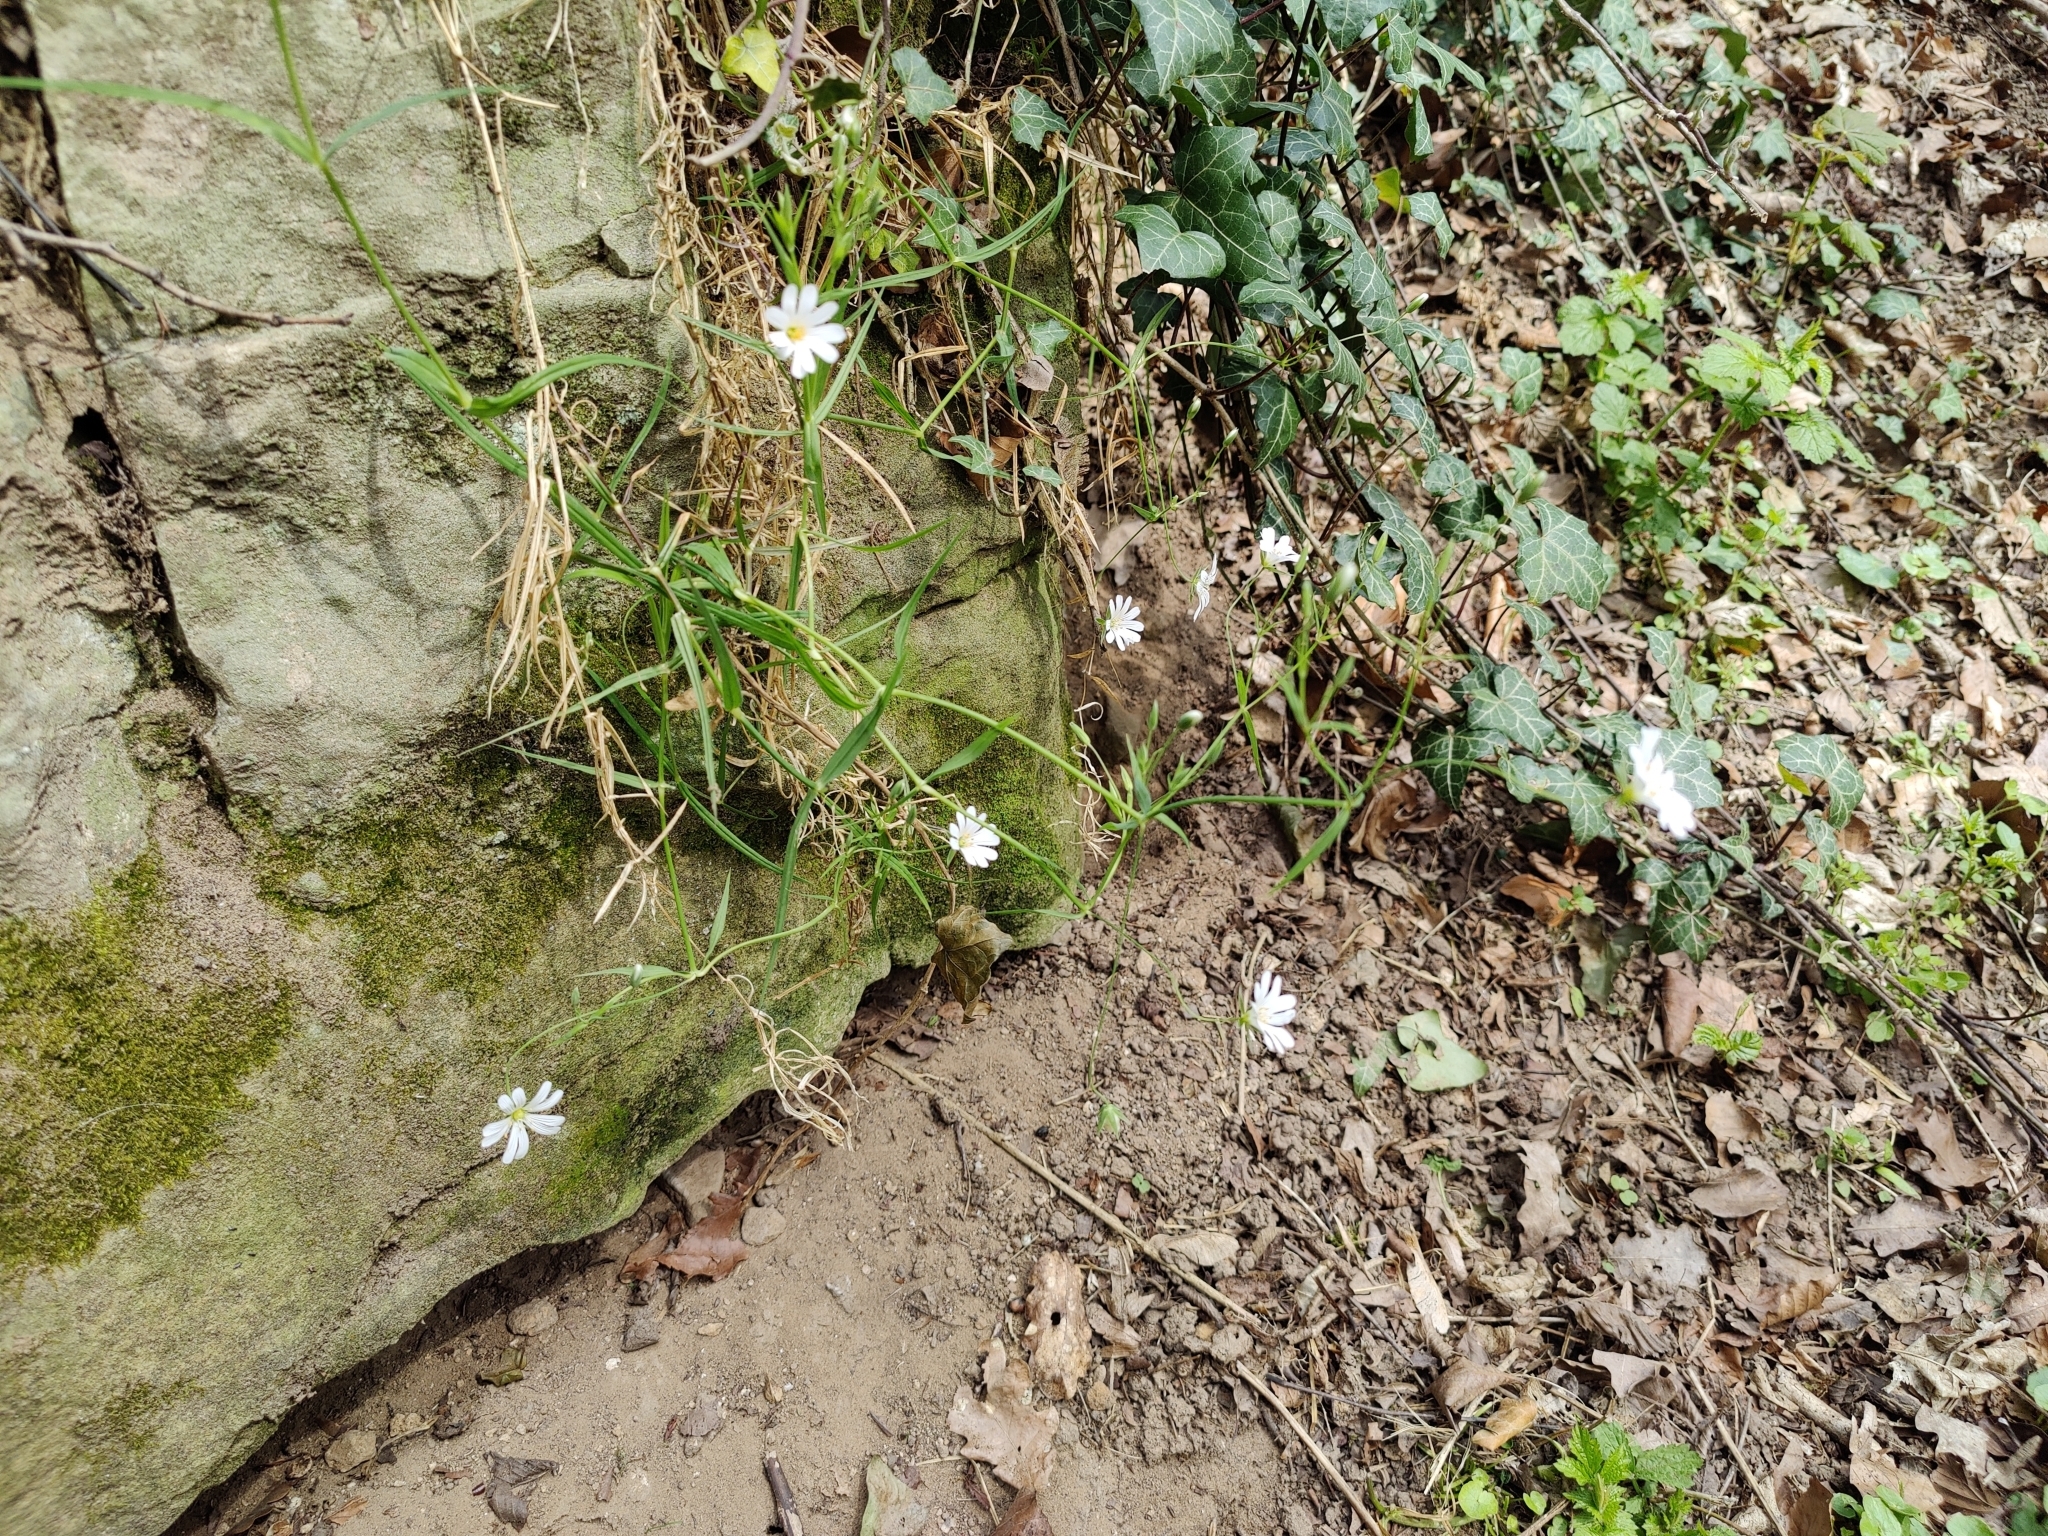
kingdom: Plantae
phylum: Tracheophyta
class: Magnoliopsida
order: Caryophyllales
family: Caryophyllaceae
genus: Rabelera
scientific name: Rabelera holostea
